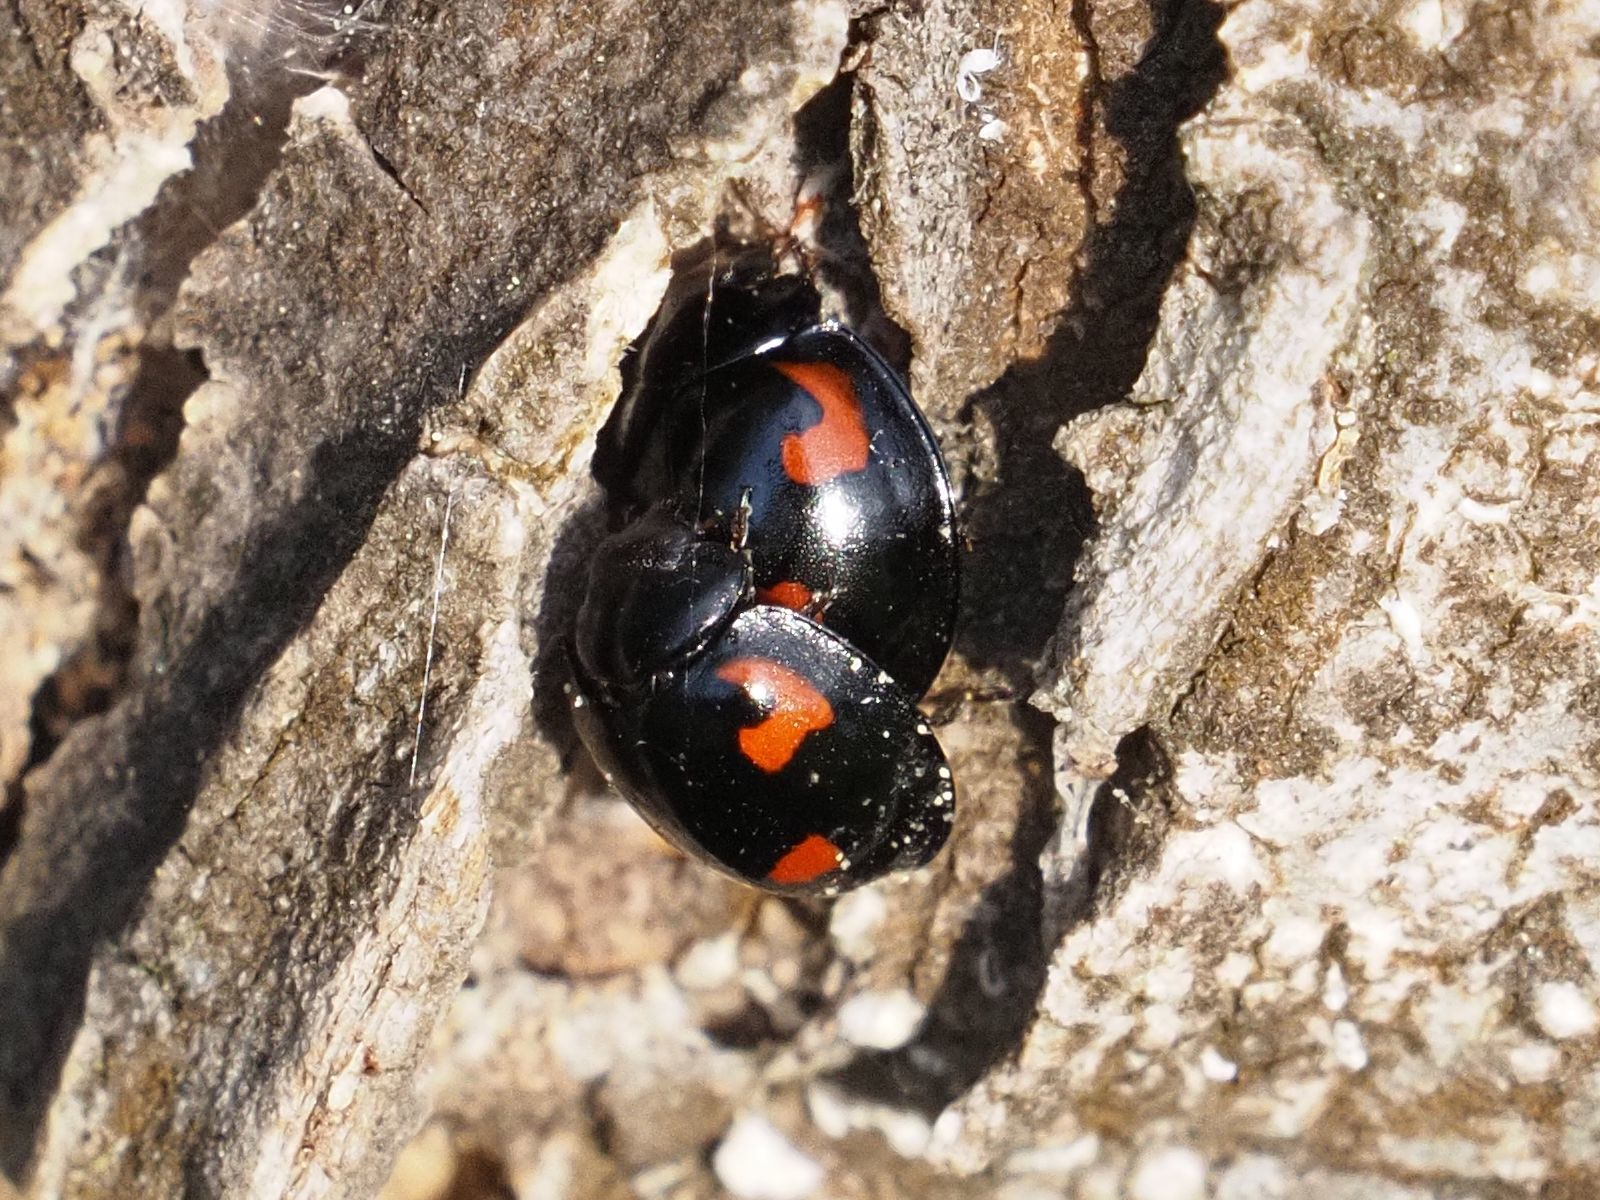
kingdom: Animalia
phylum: Arthropoda
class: Insecta
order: Coleoptera
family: Coccinellidae
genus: Brumus
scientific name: Brumus quadripustulatus
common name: Ladybird beetle
